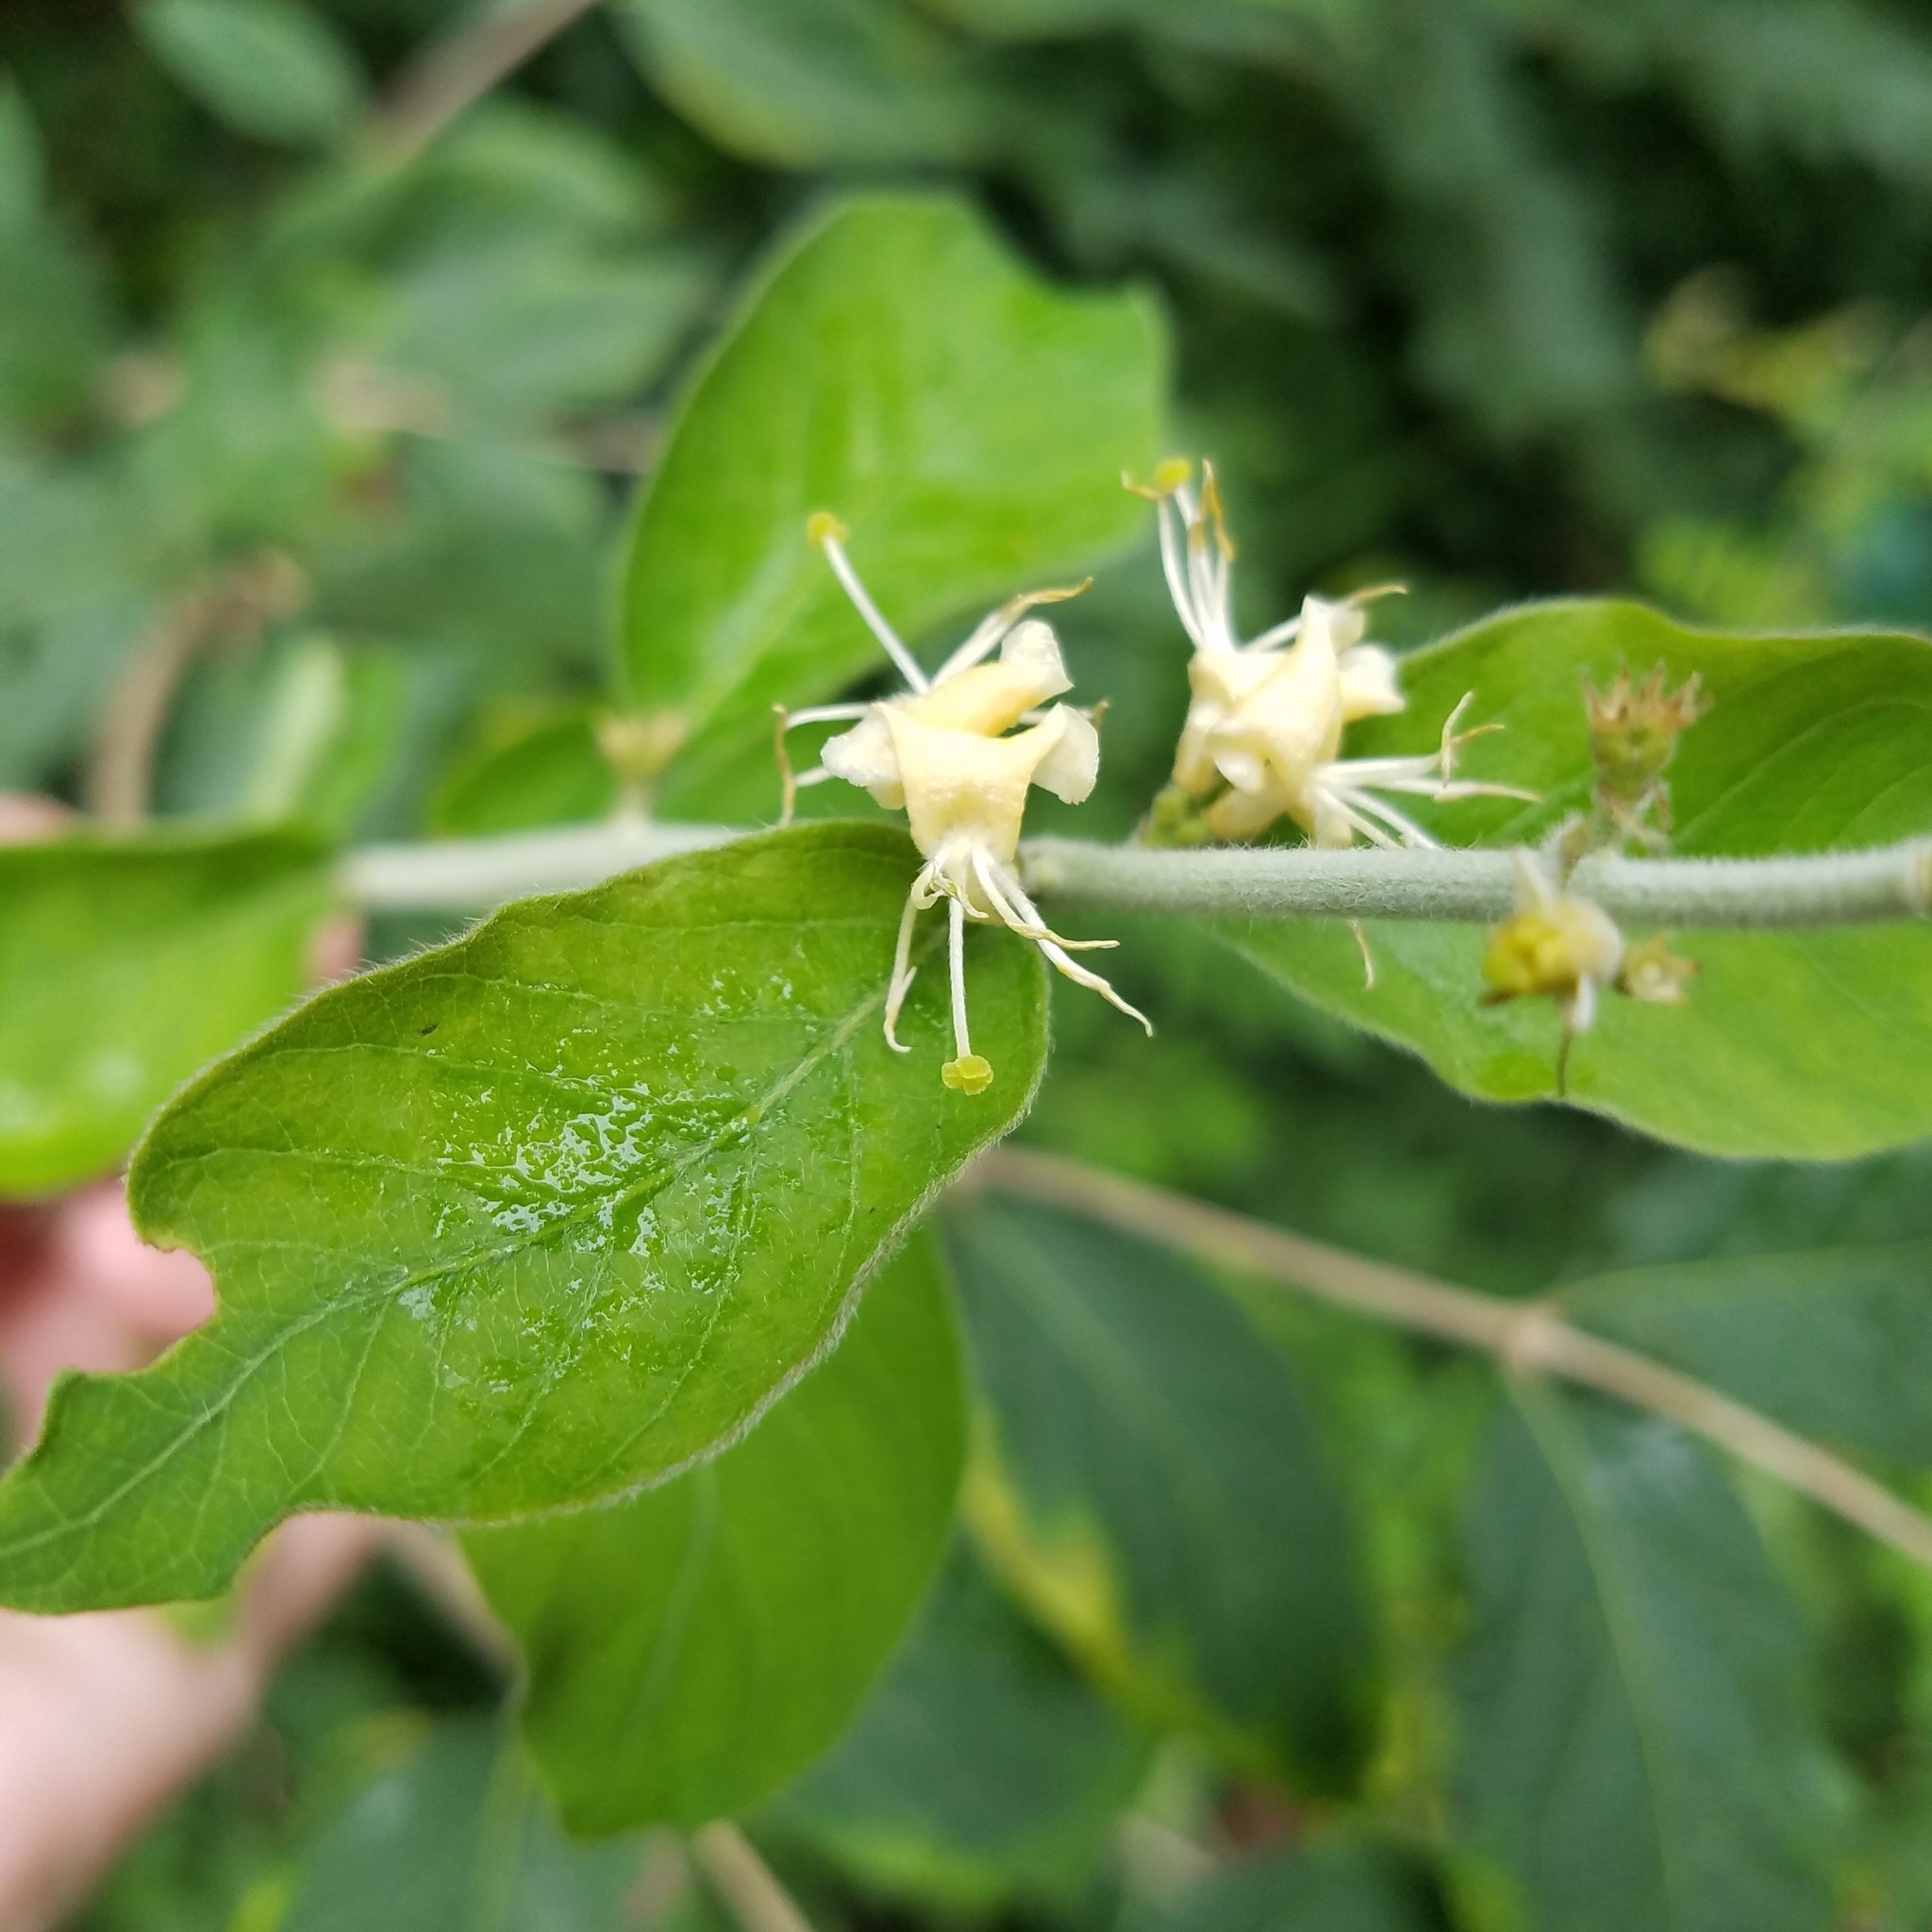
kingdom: Plantae
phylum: Tracheophyta
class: Magnoliopsida
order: Dipsacales
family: Caprifoliaceae
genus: Lonicera
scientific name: Lonicera maackii
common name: Amur honeysuckle
